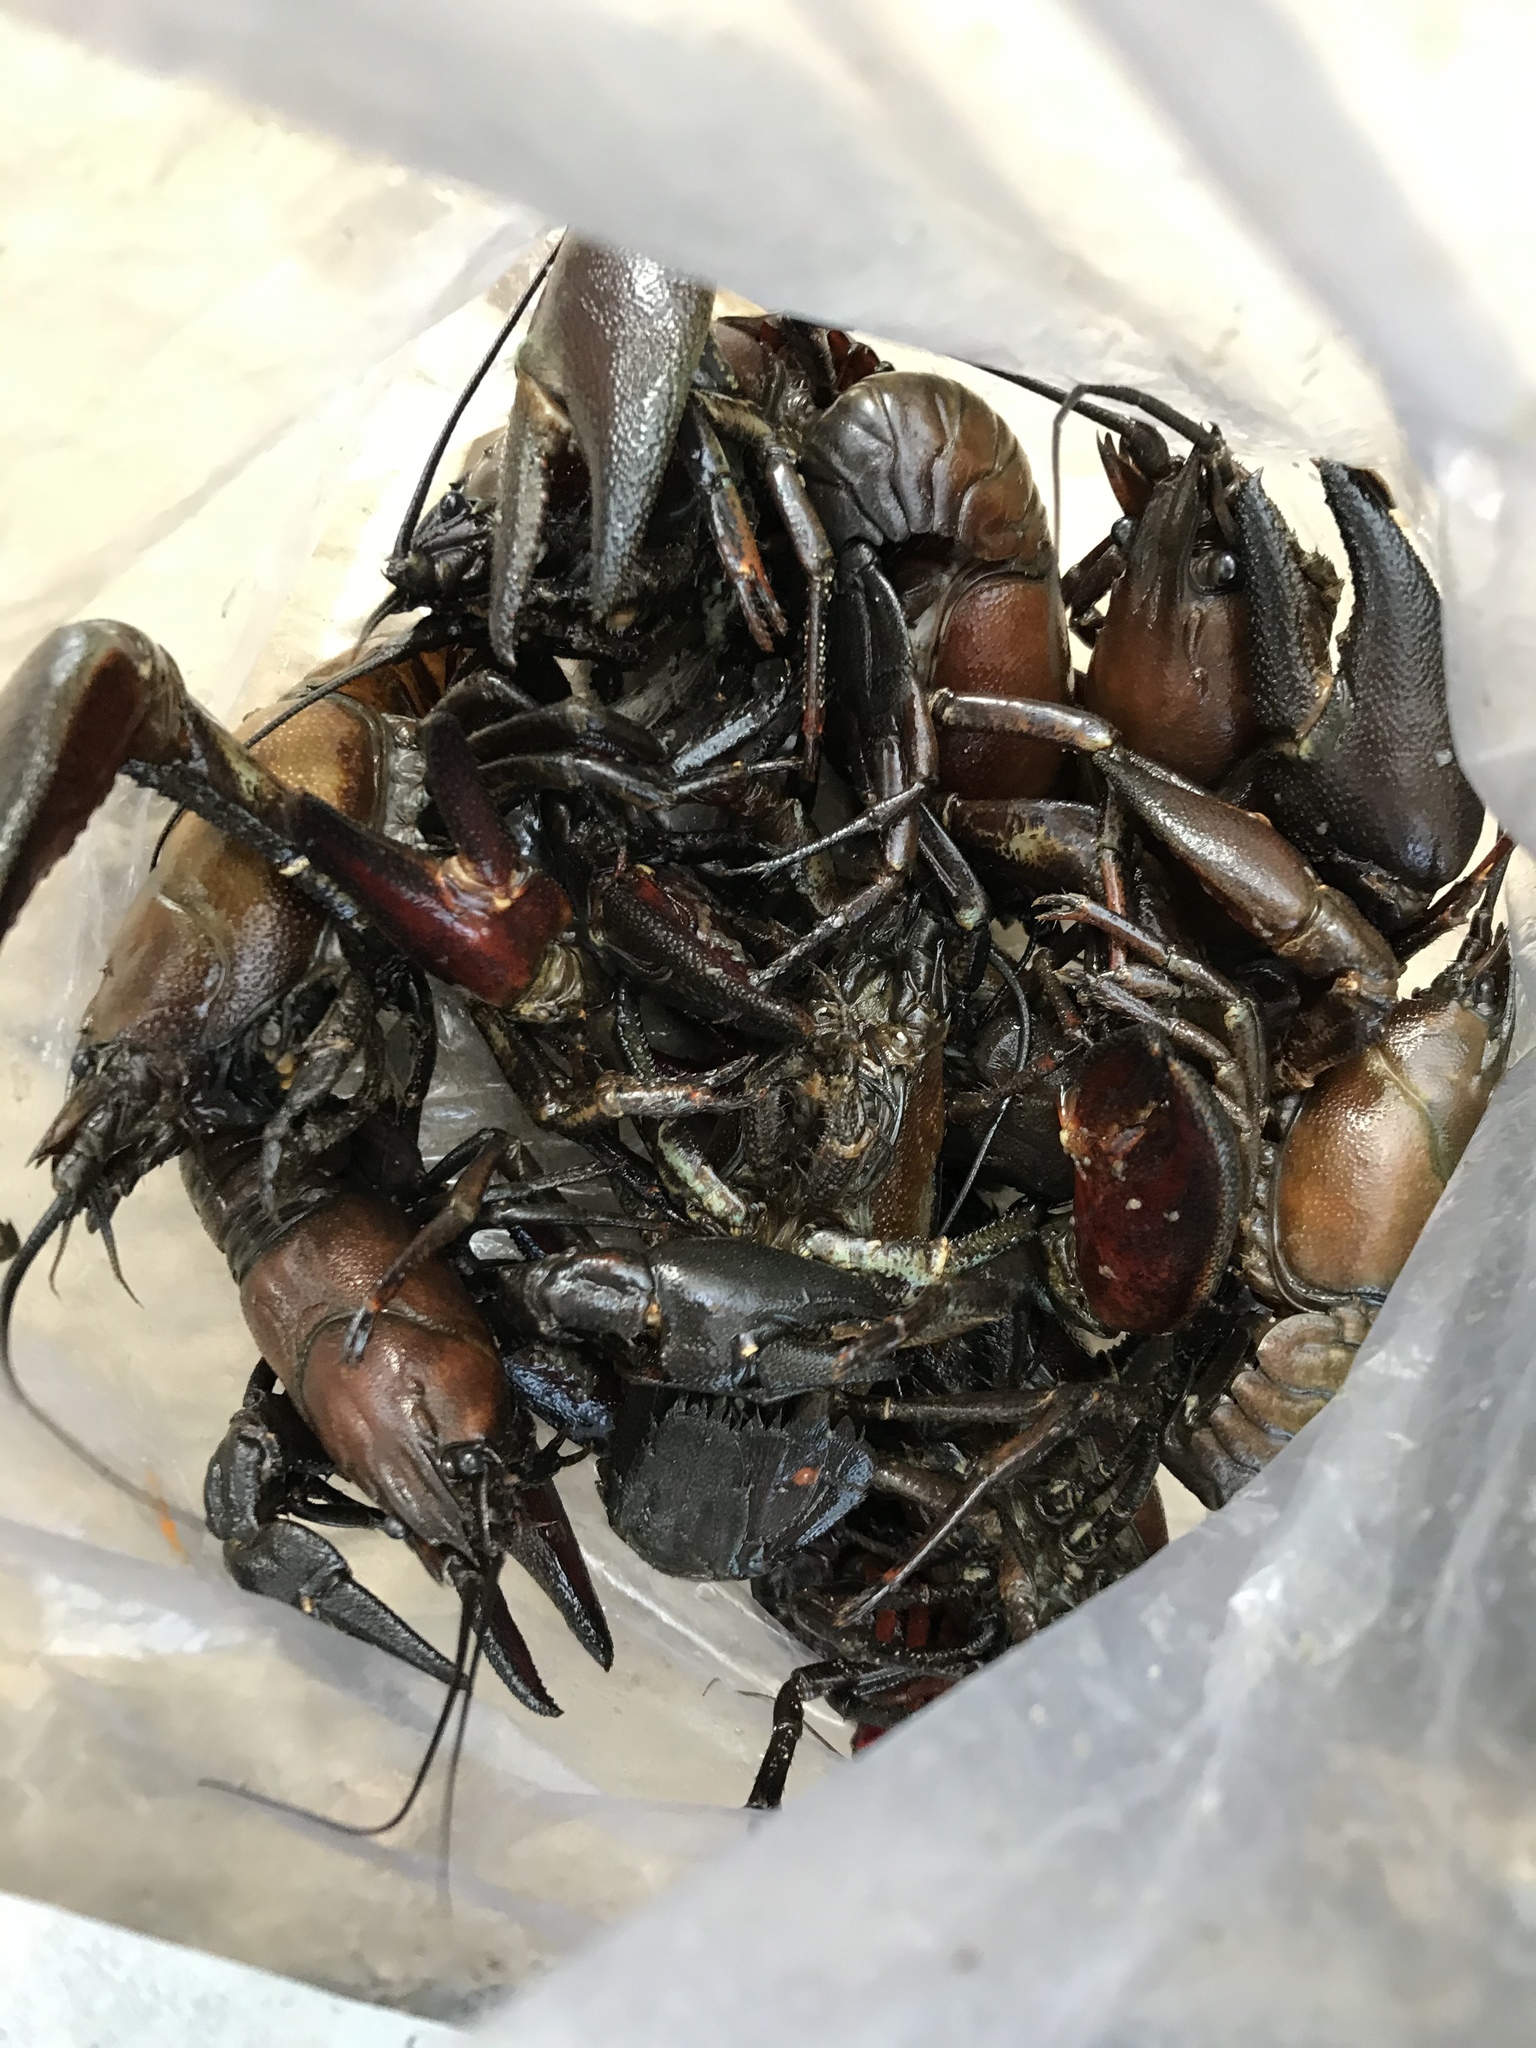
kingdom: Animalia
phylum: Arthropoda
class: Malacostraca
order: Decapoda
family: Astacidae
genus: Pacifastacus
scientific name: Pacifastacus leniusculus
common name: Signal crayfish
